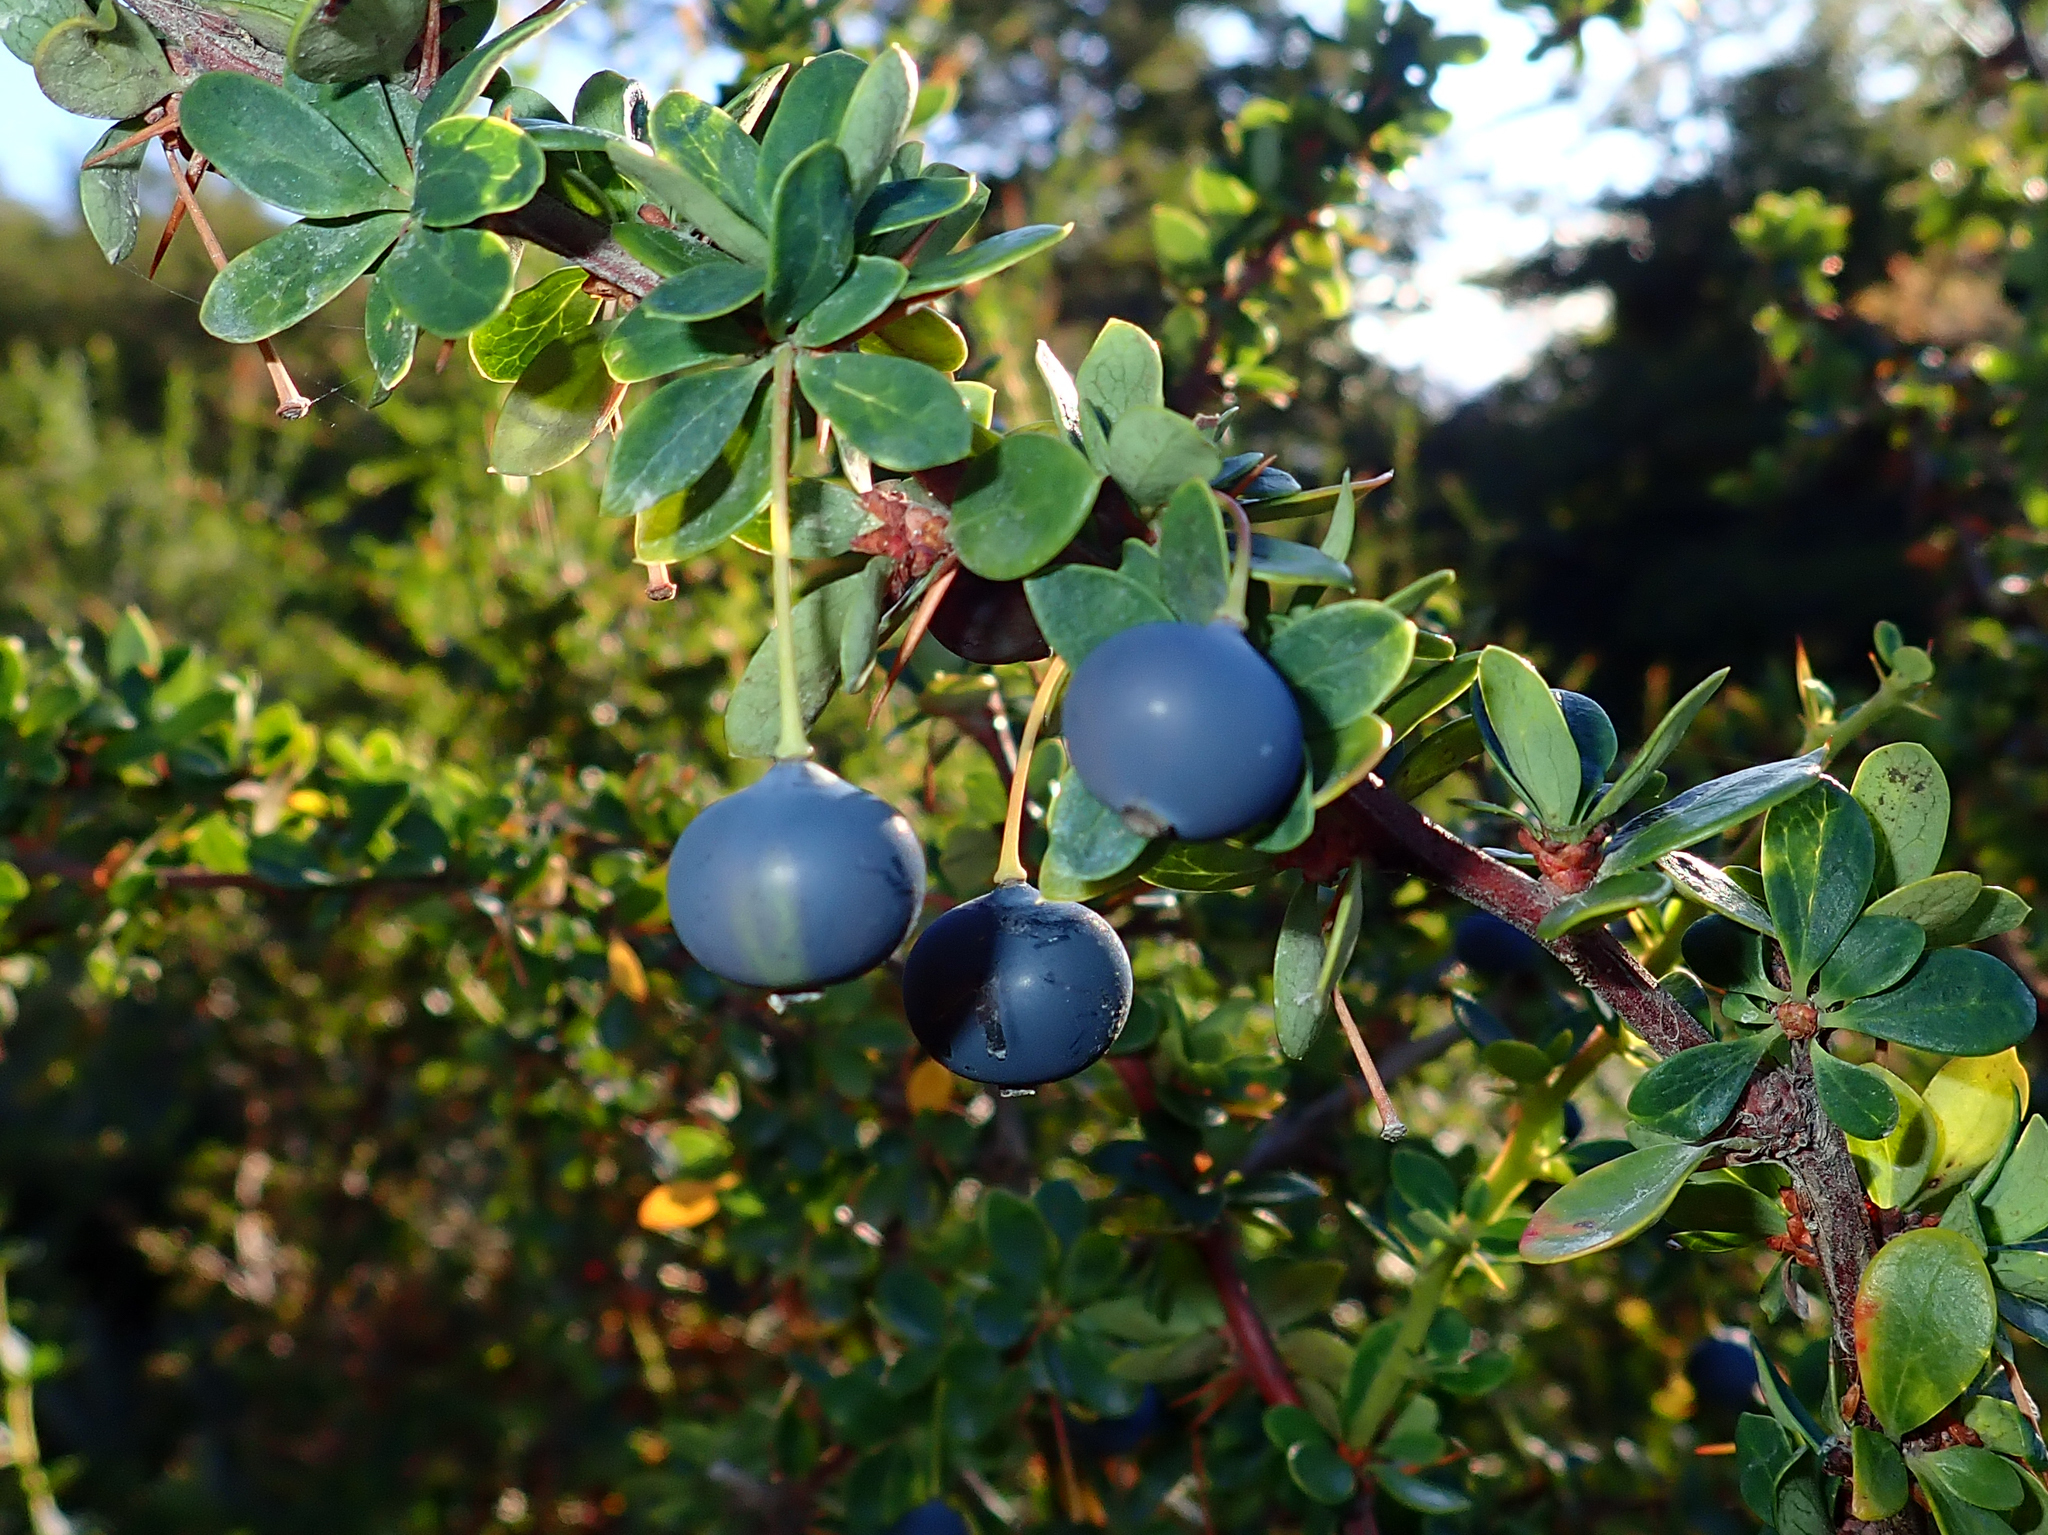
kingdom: Plantae
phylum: Tracheophyta
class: Magnoliopsida
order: Ranunculales
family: Berberidaceae
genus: Berberis
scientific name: Berberis microphylla
